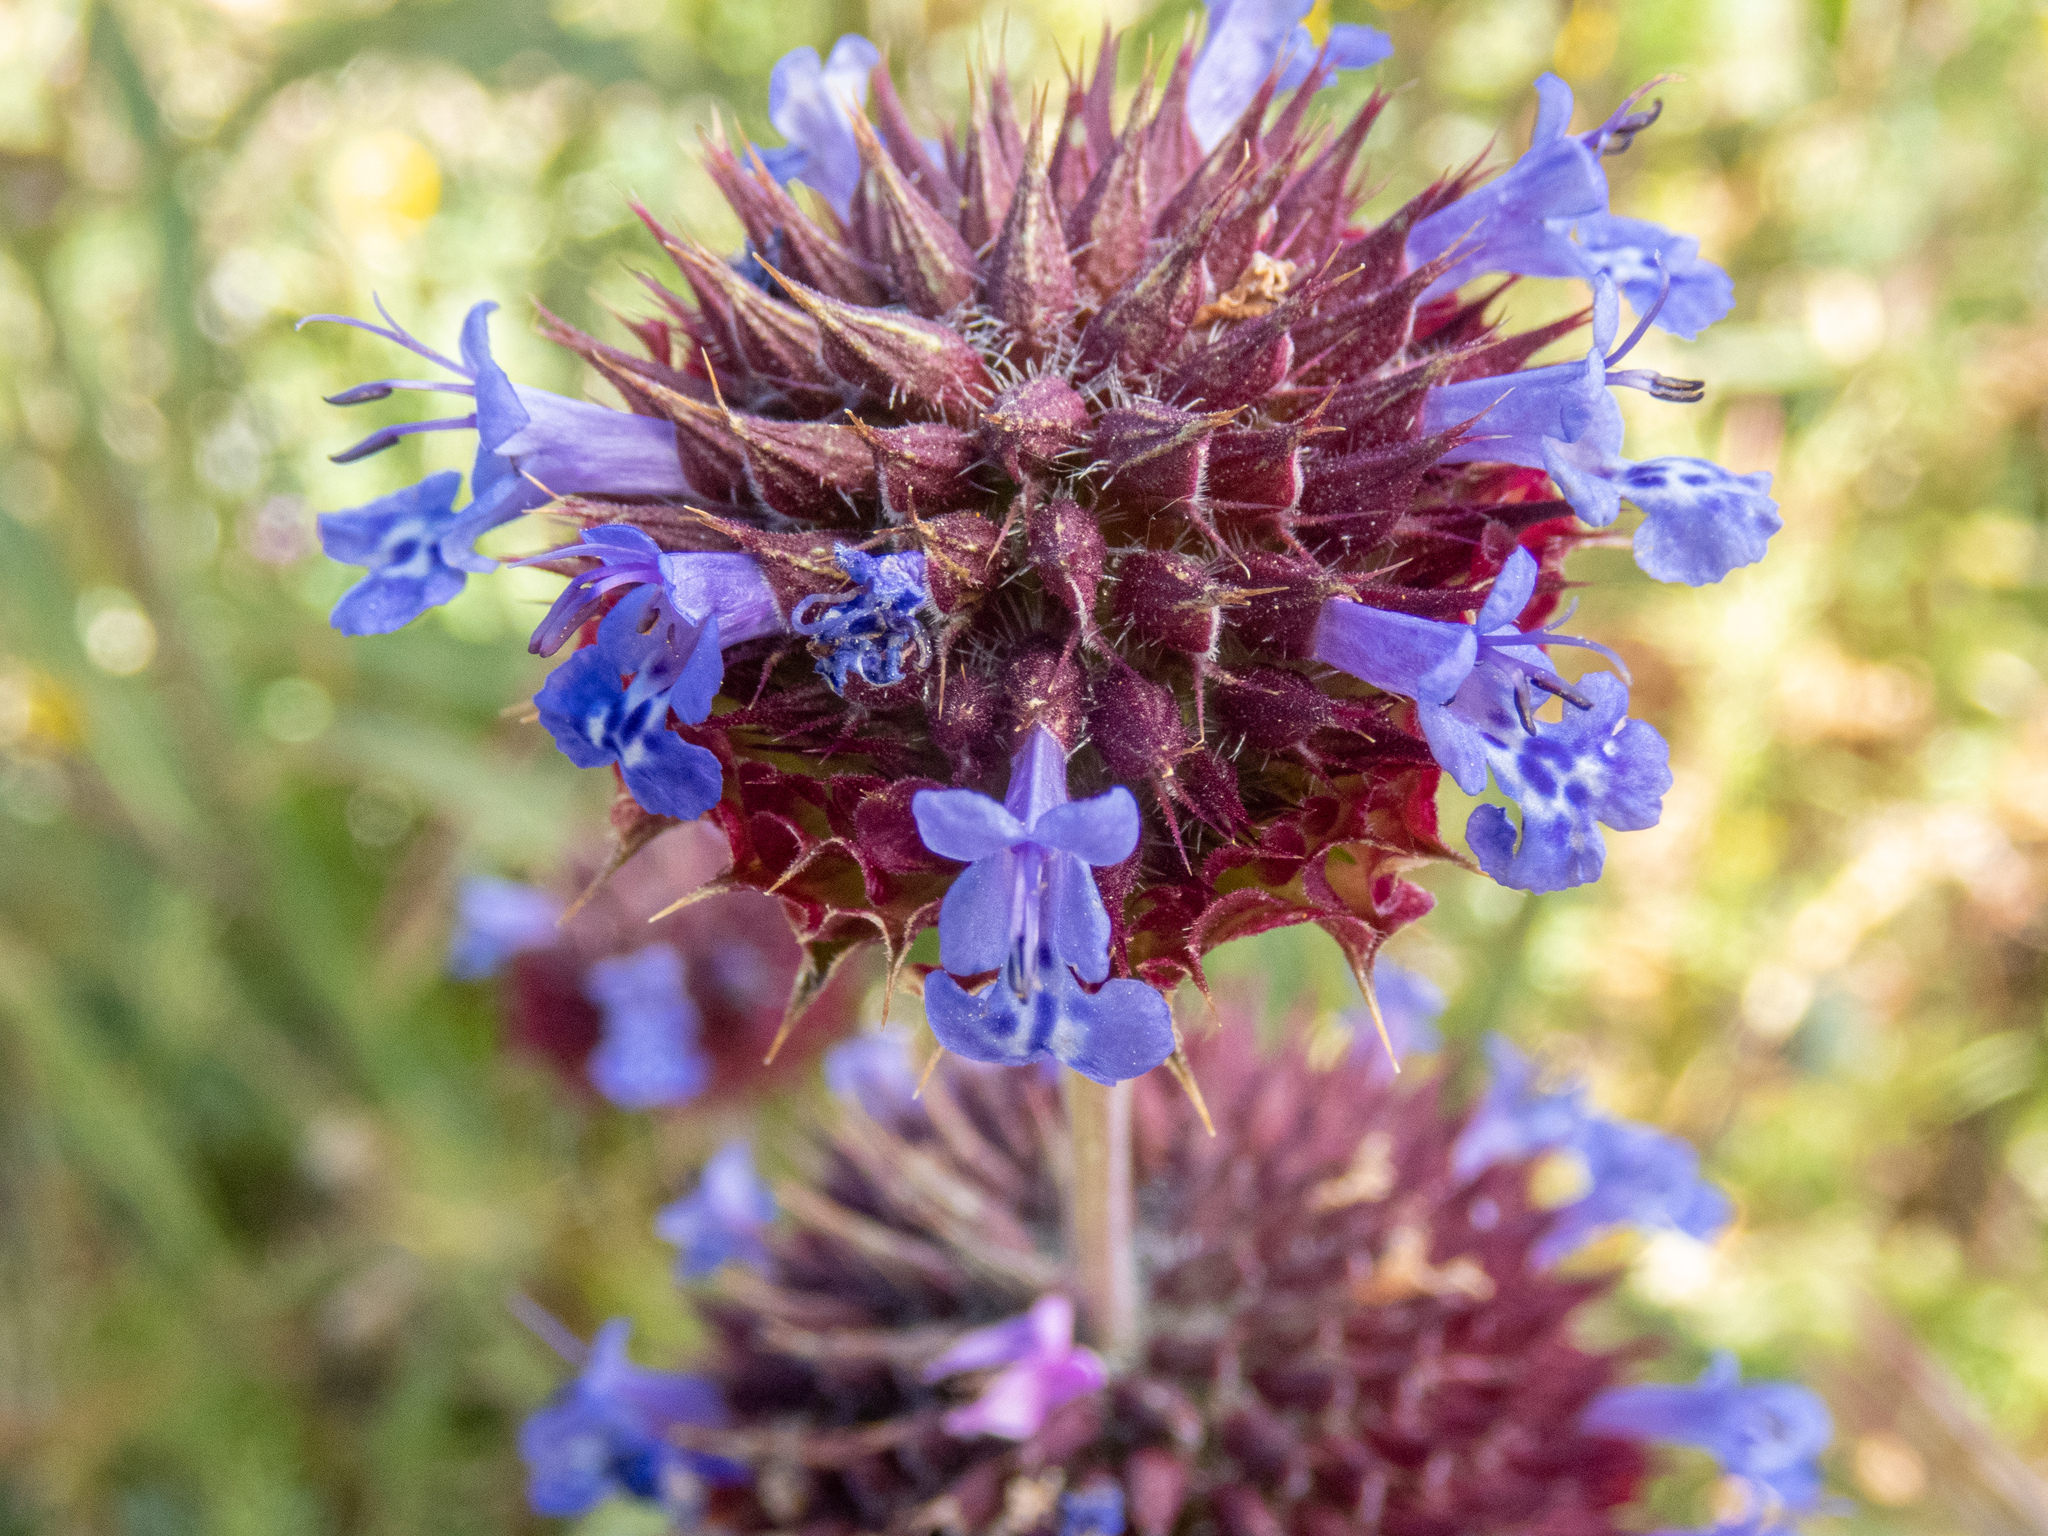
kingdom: Plantae
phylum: Tracheophyta
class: Magnoliopsida
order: Lamiales
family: Lamiaceae
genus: Salvia
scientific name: Salvia columbariae
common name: Chia
